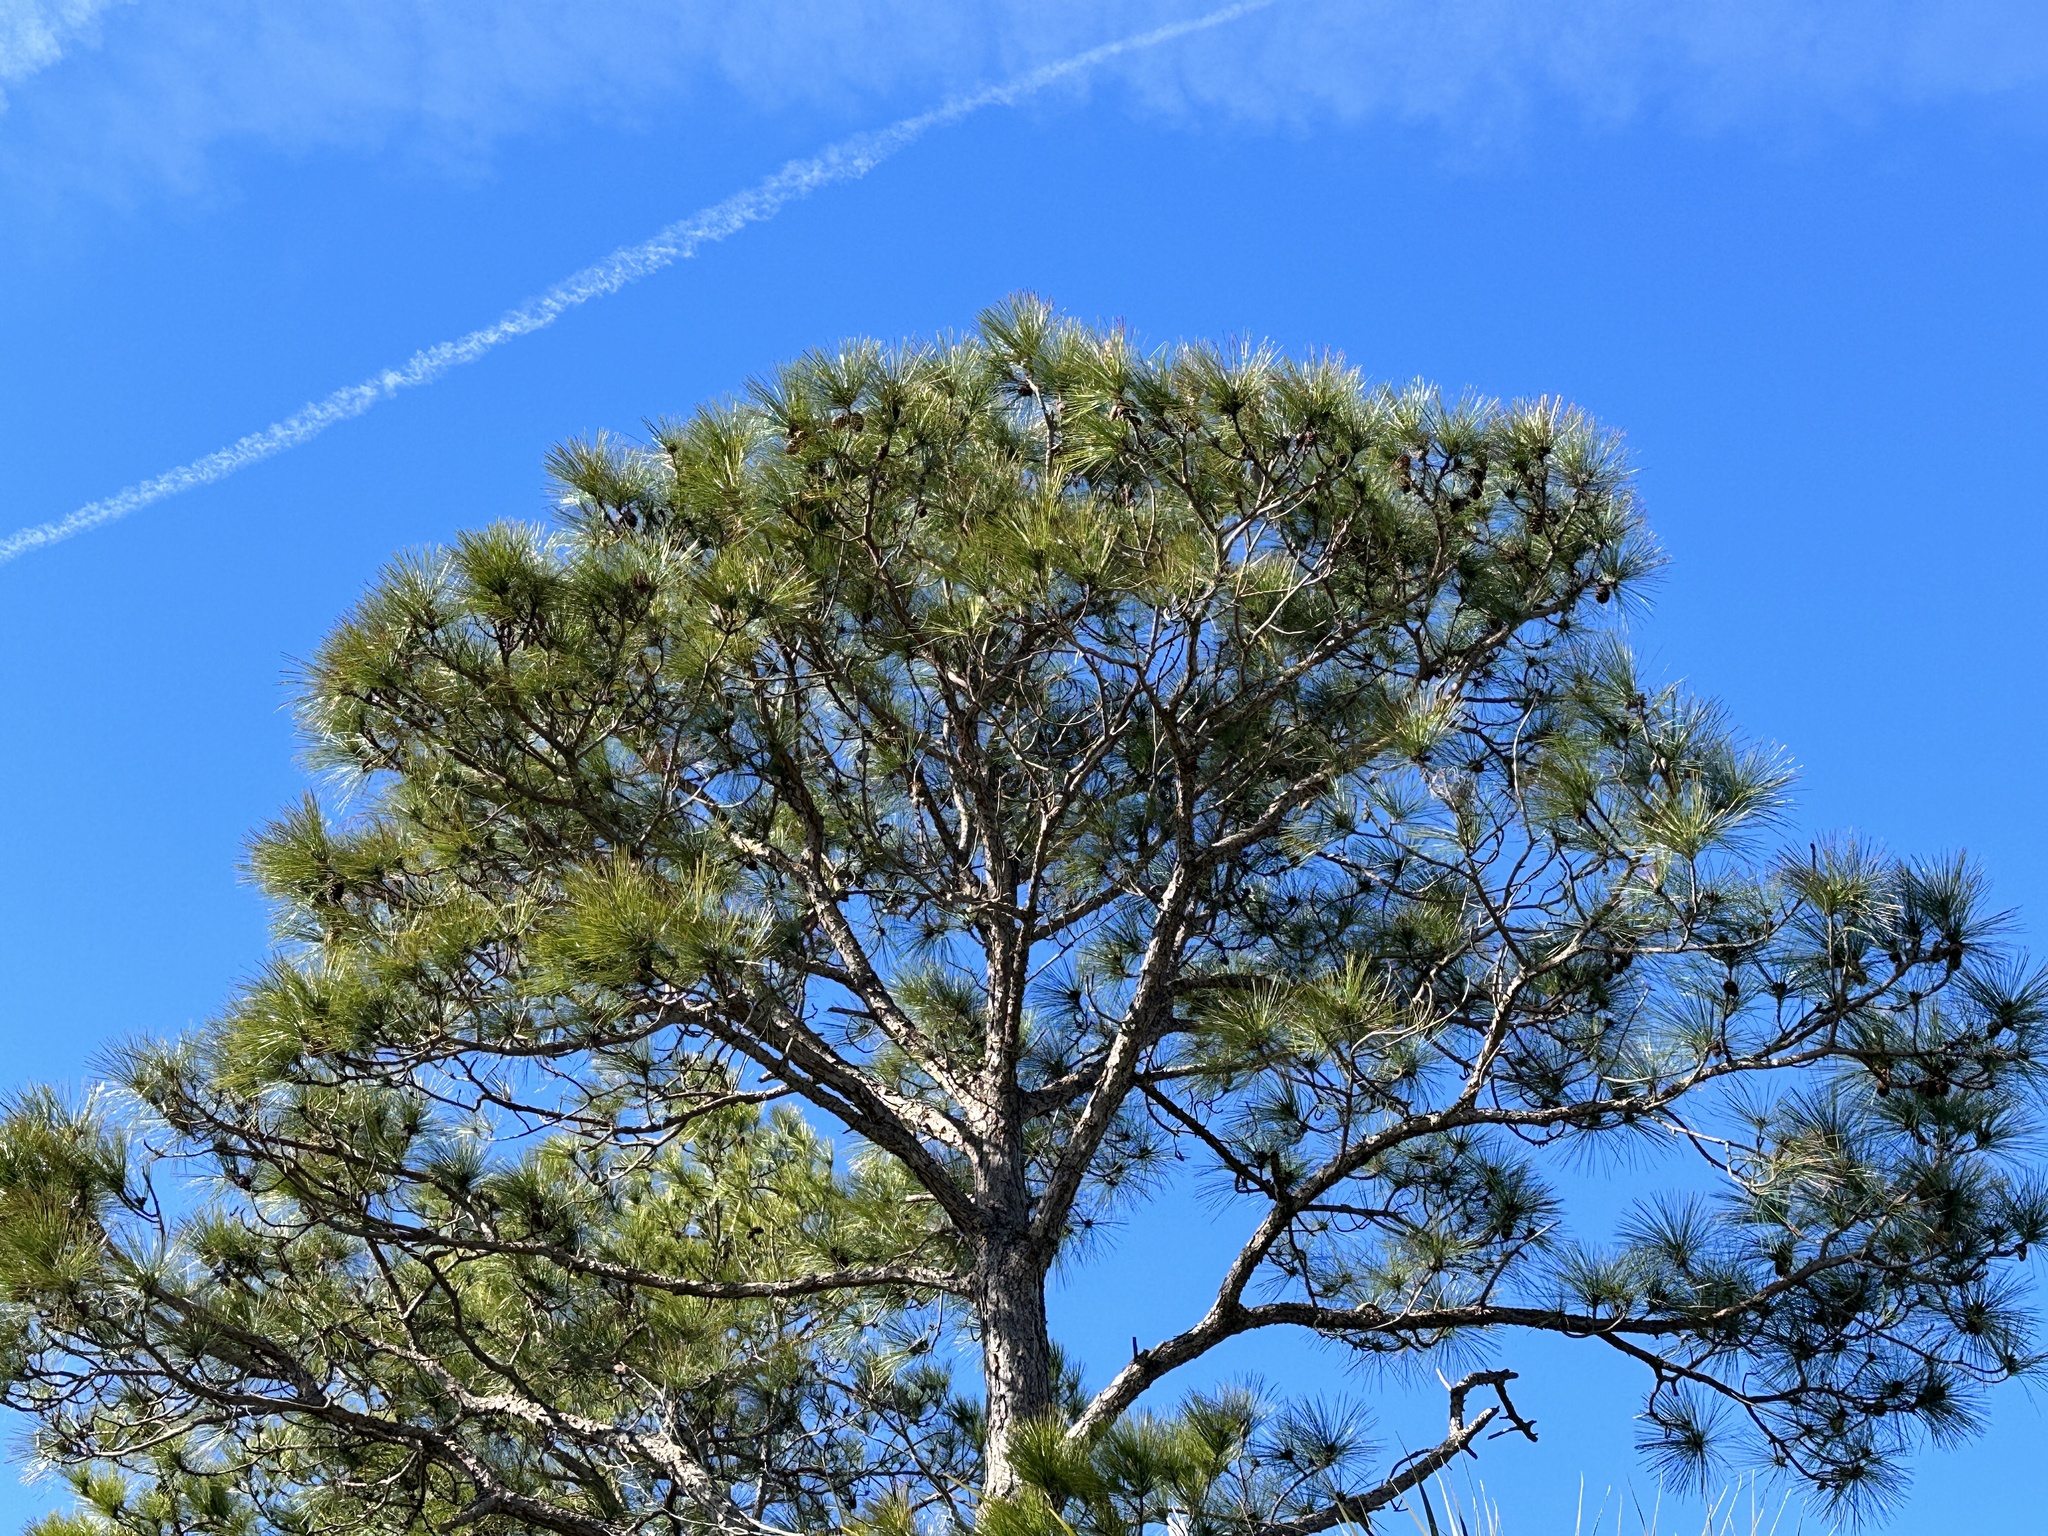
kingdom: Plantae
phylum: Tracheophyta
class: Pinopsida
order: Pinales
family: Pinaceae
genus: Pinus
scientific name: Pinus elliottii
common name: Slash pine
